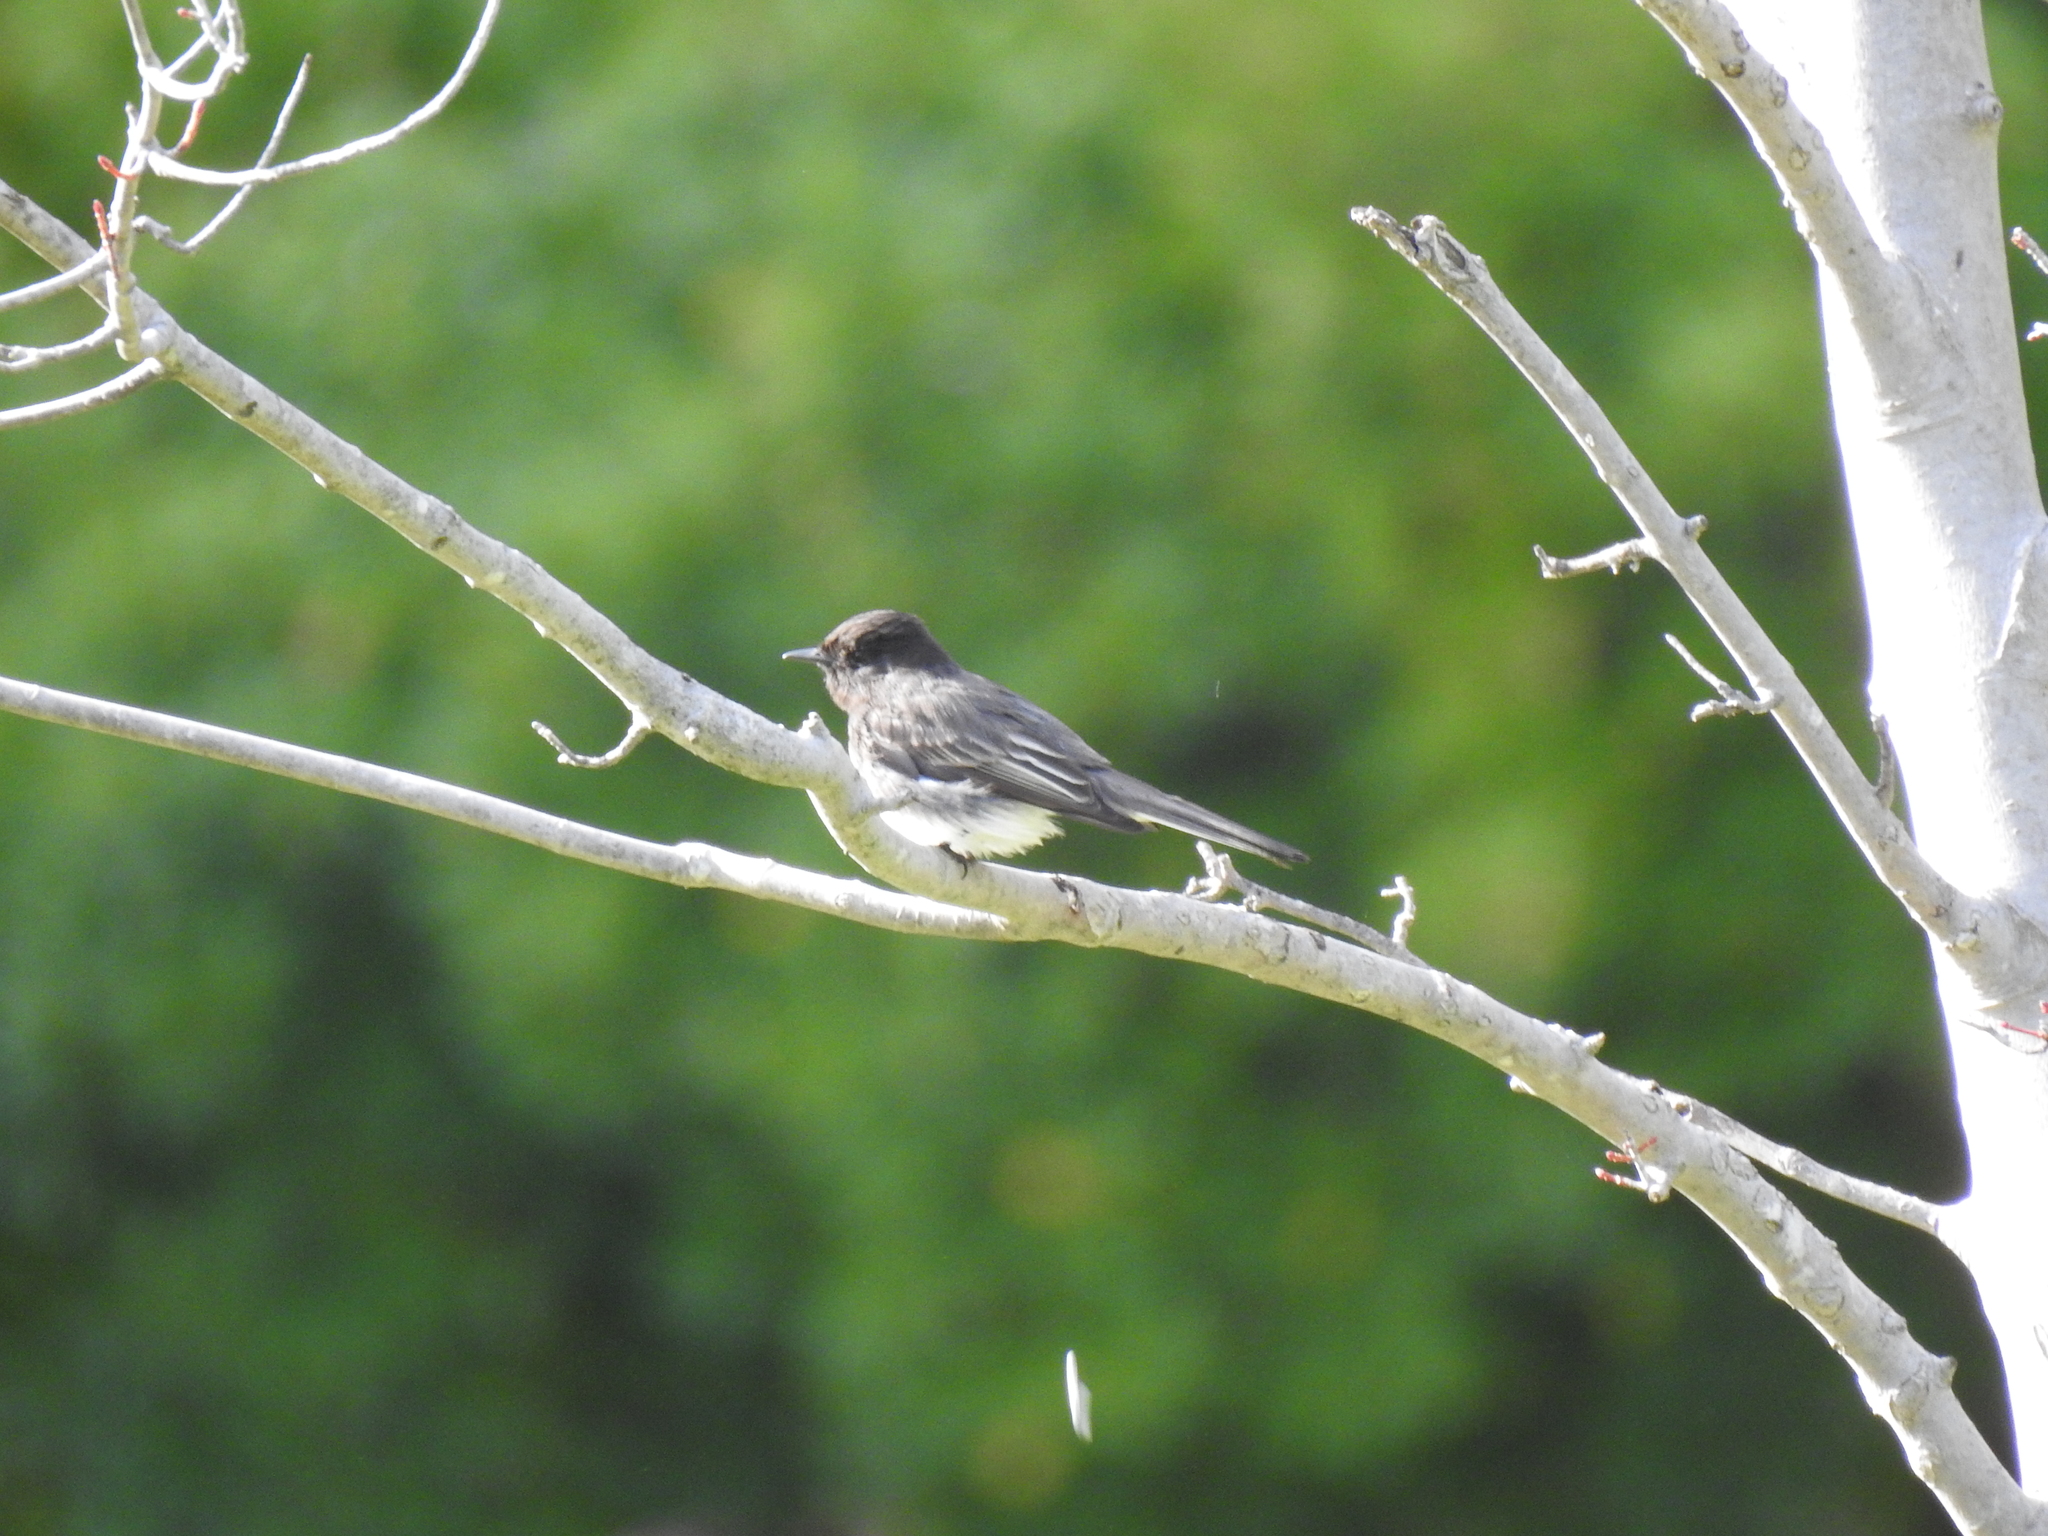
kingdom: Animalia
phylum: Chordata
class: Aves
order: Passeriformes
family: Tyrannidae
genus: Sayornis
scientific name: Sayornis nigricans
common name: Black phoebe
